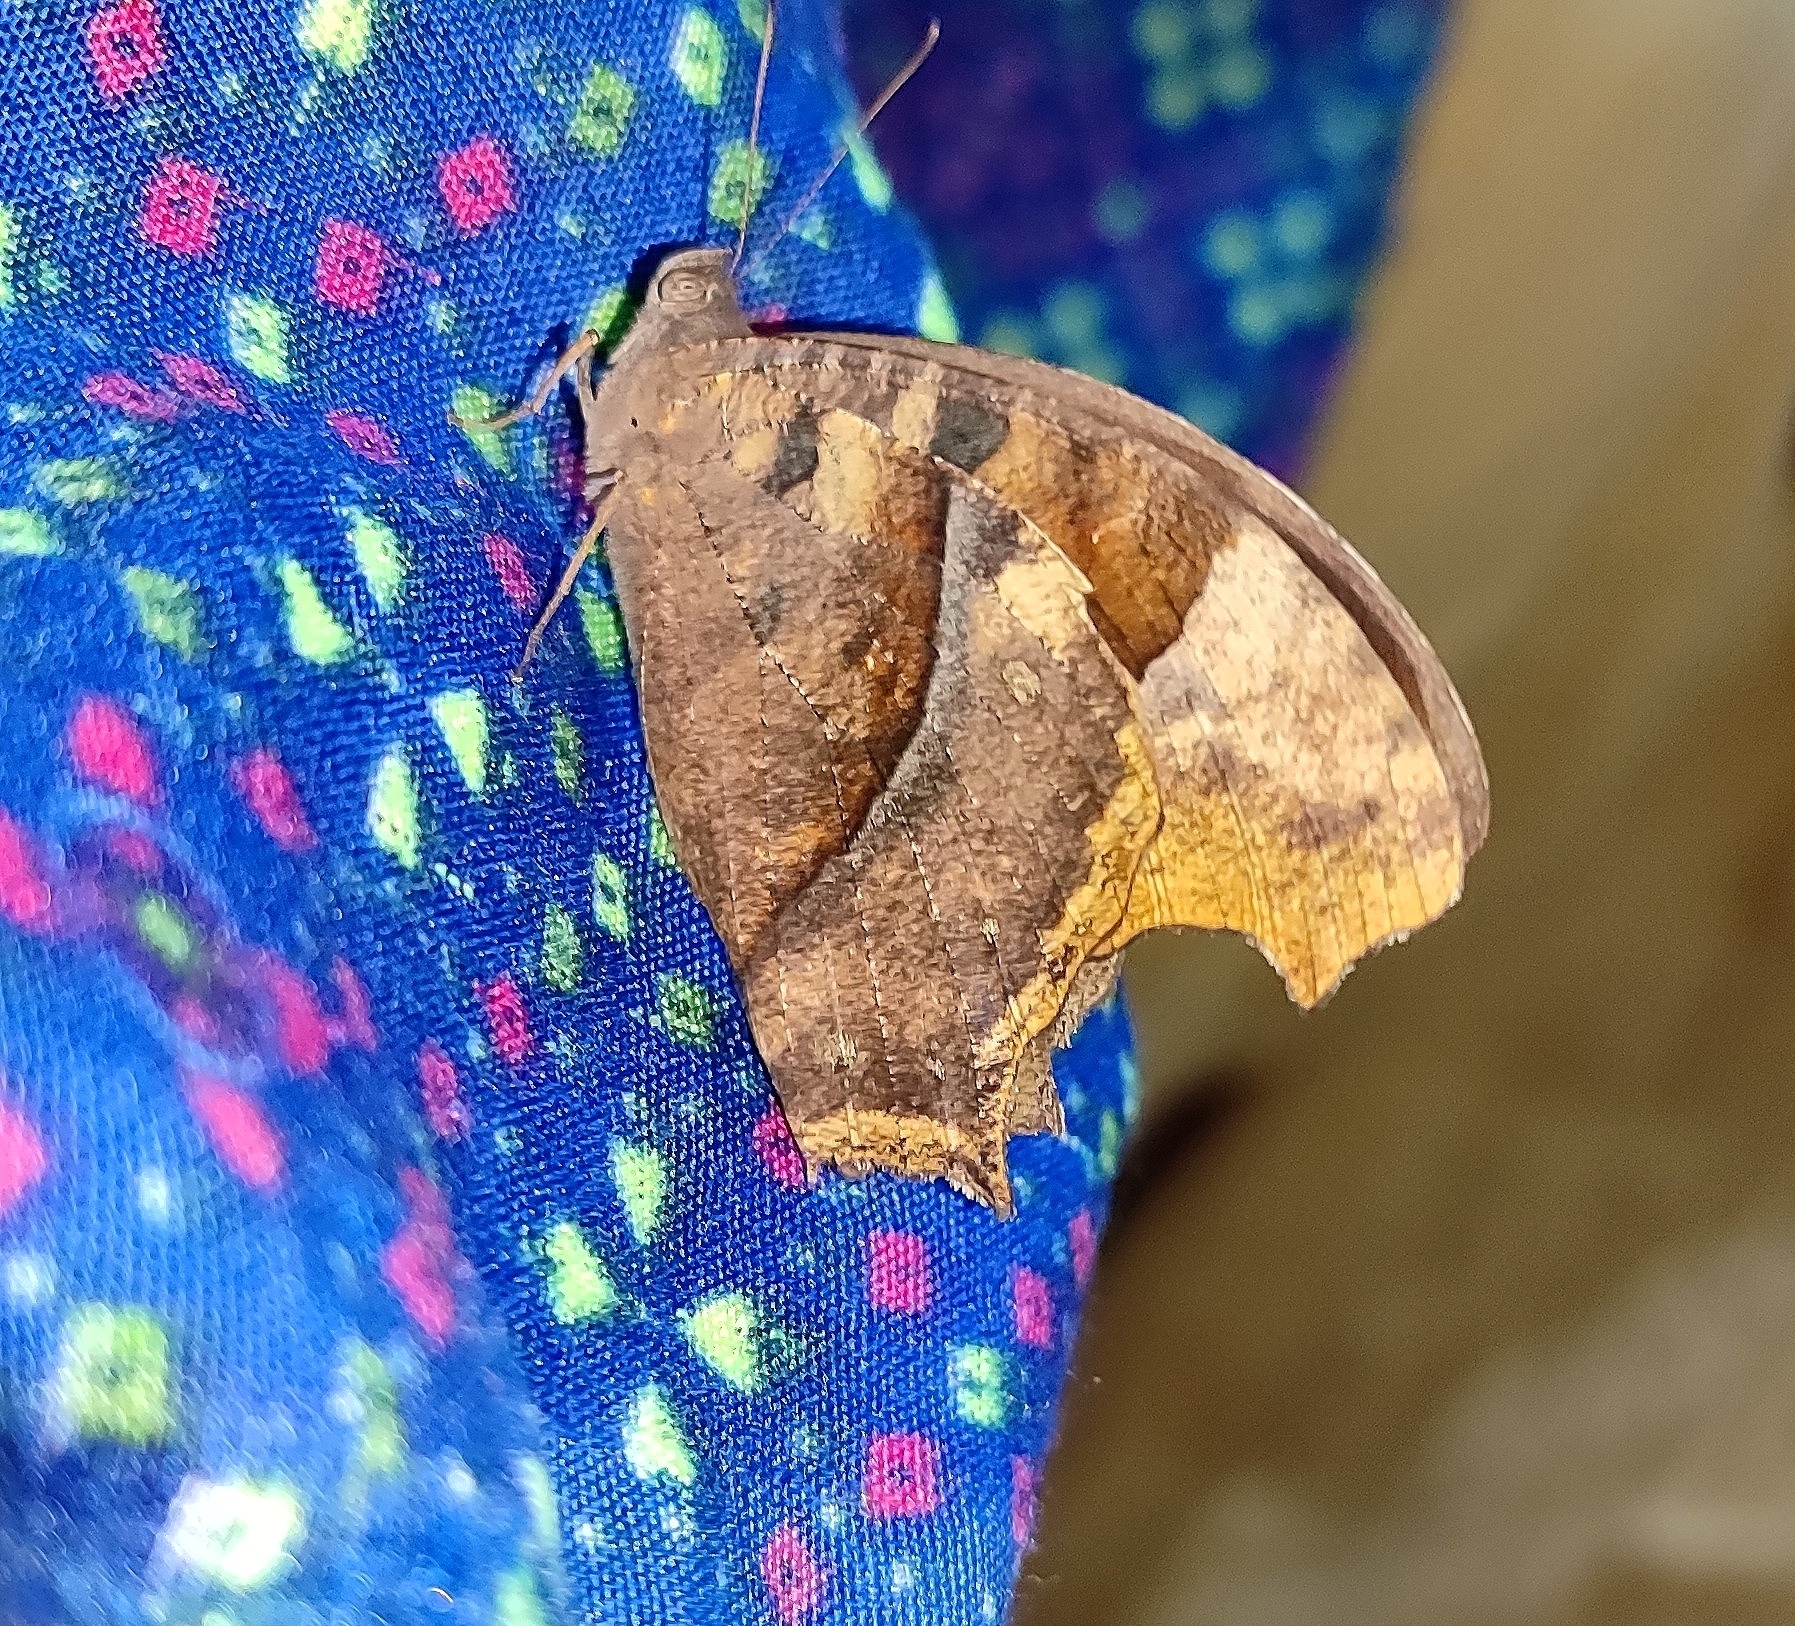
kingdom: Animalia
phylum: Arthropoda
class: Insecta
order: Lepidoptera
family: Nymphalidae
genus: Melanitis
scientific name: Melanitis leda
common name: Twilight brown
